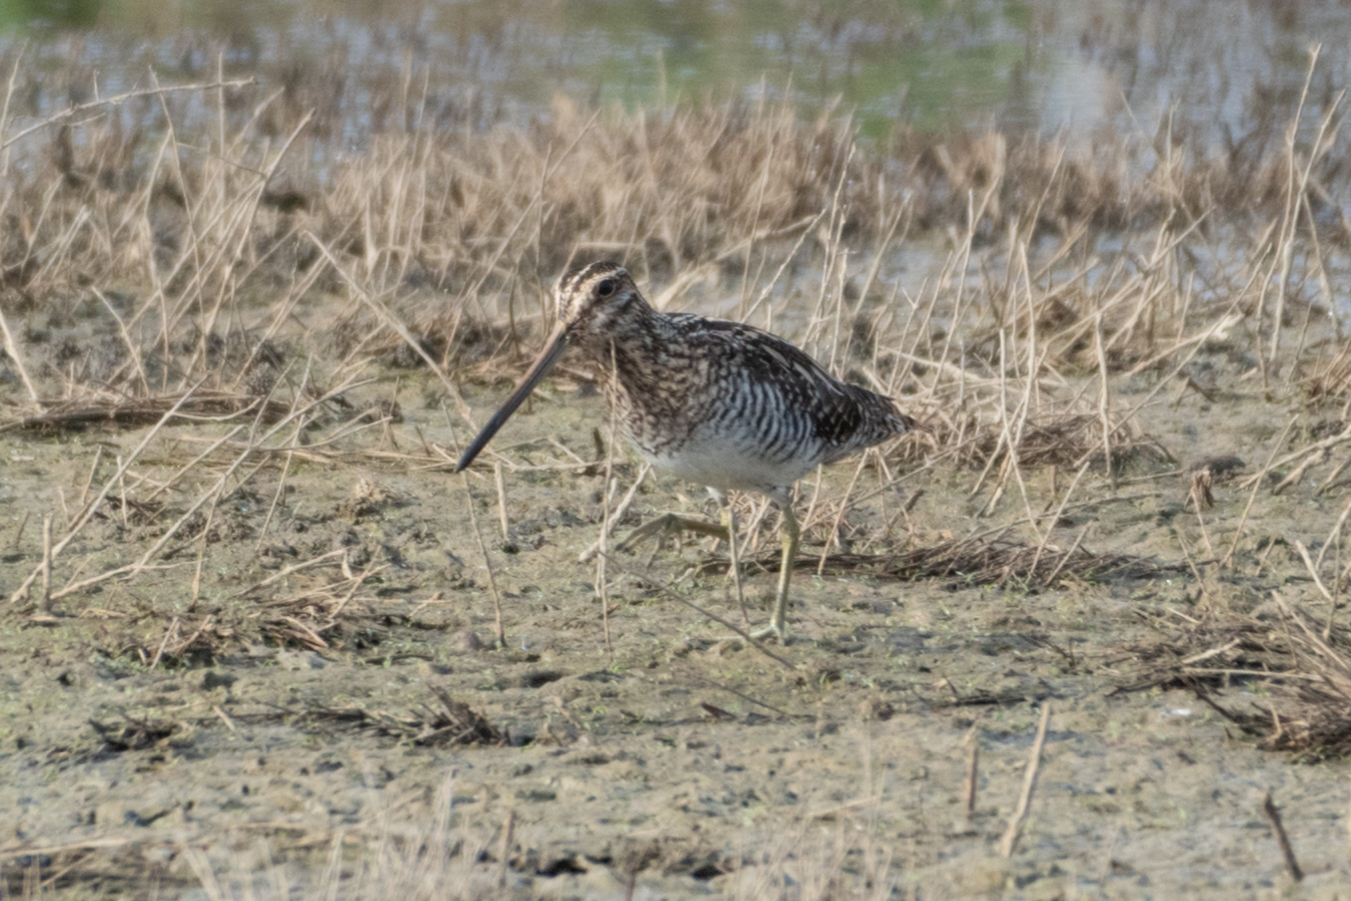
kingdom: Animalia
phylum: Chordata
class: Aves
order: Charadriiformes
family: Scolopacidae
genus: Gallinago
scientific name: Gallinago delicata
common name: Wilson's snipe
